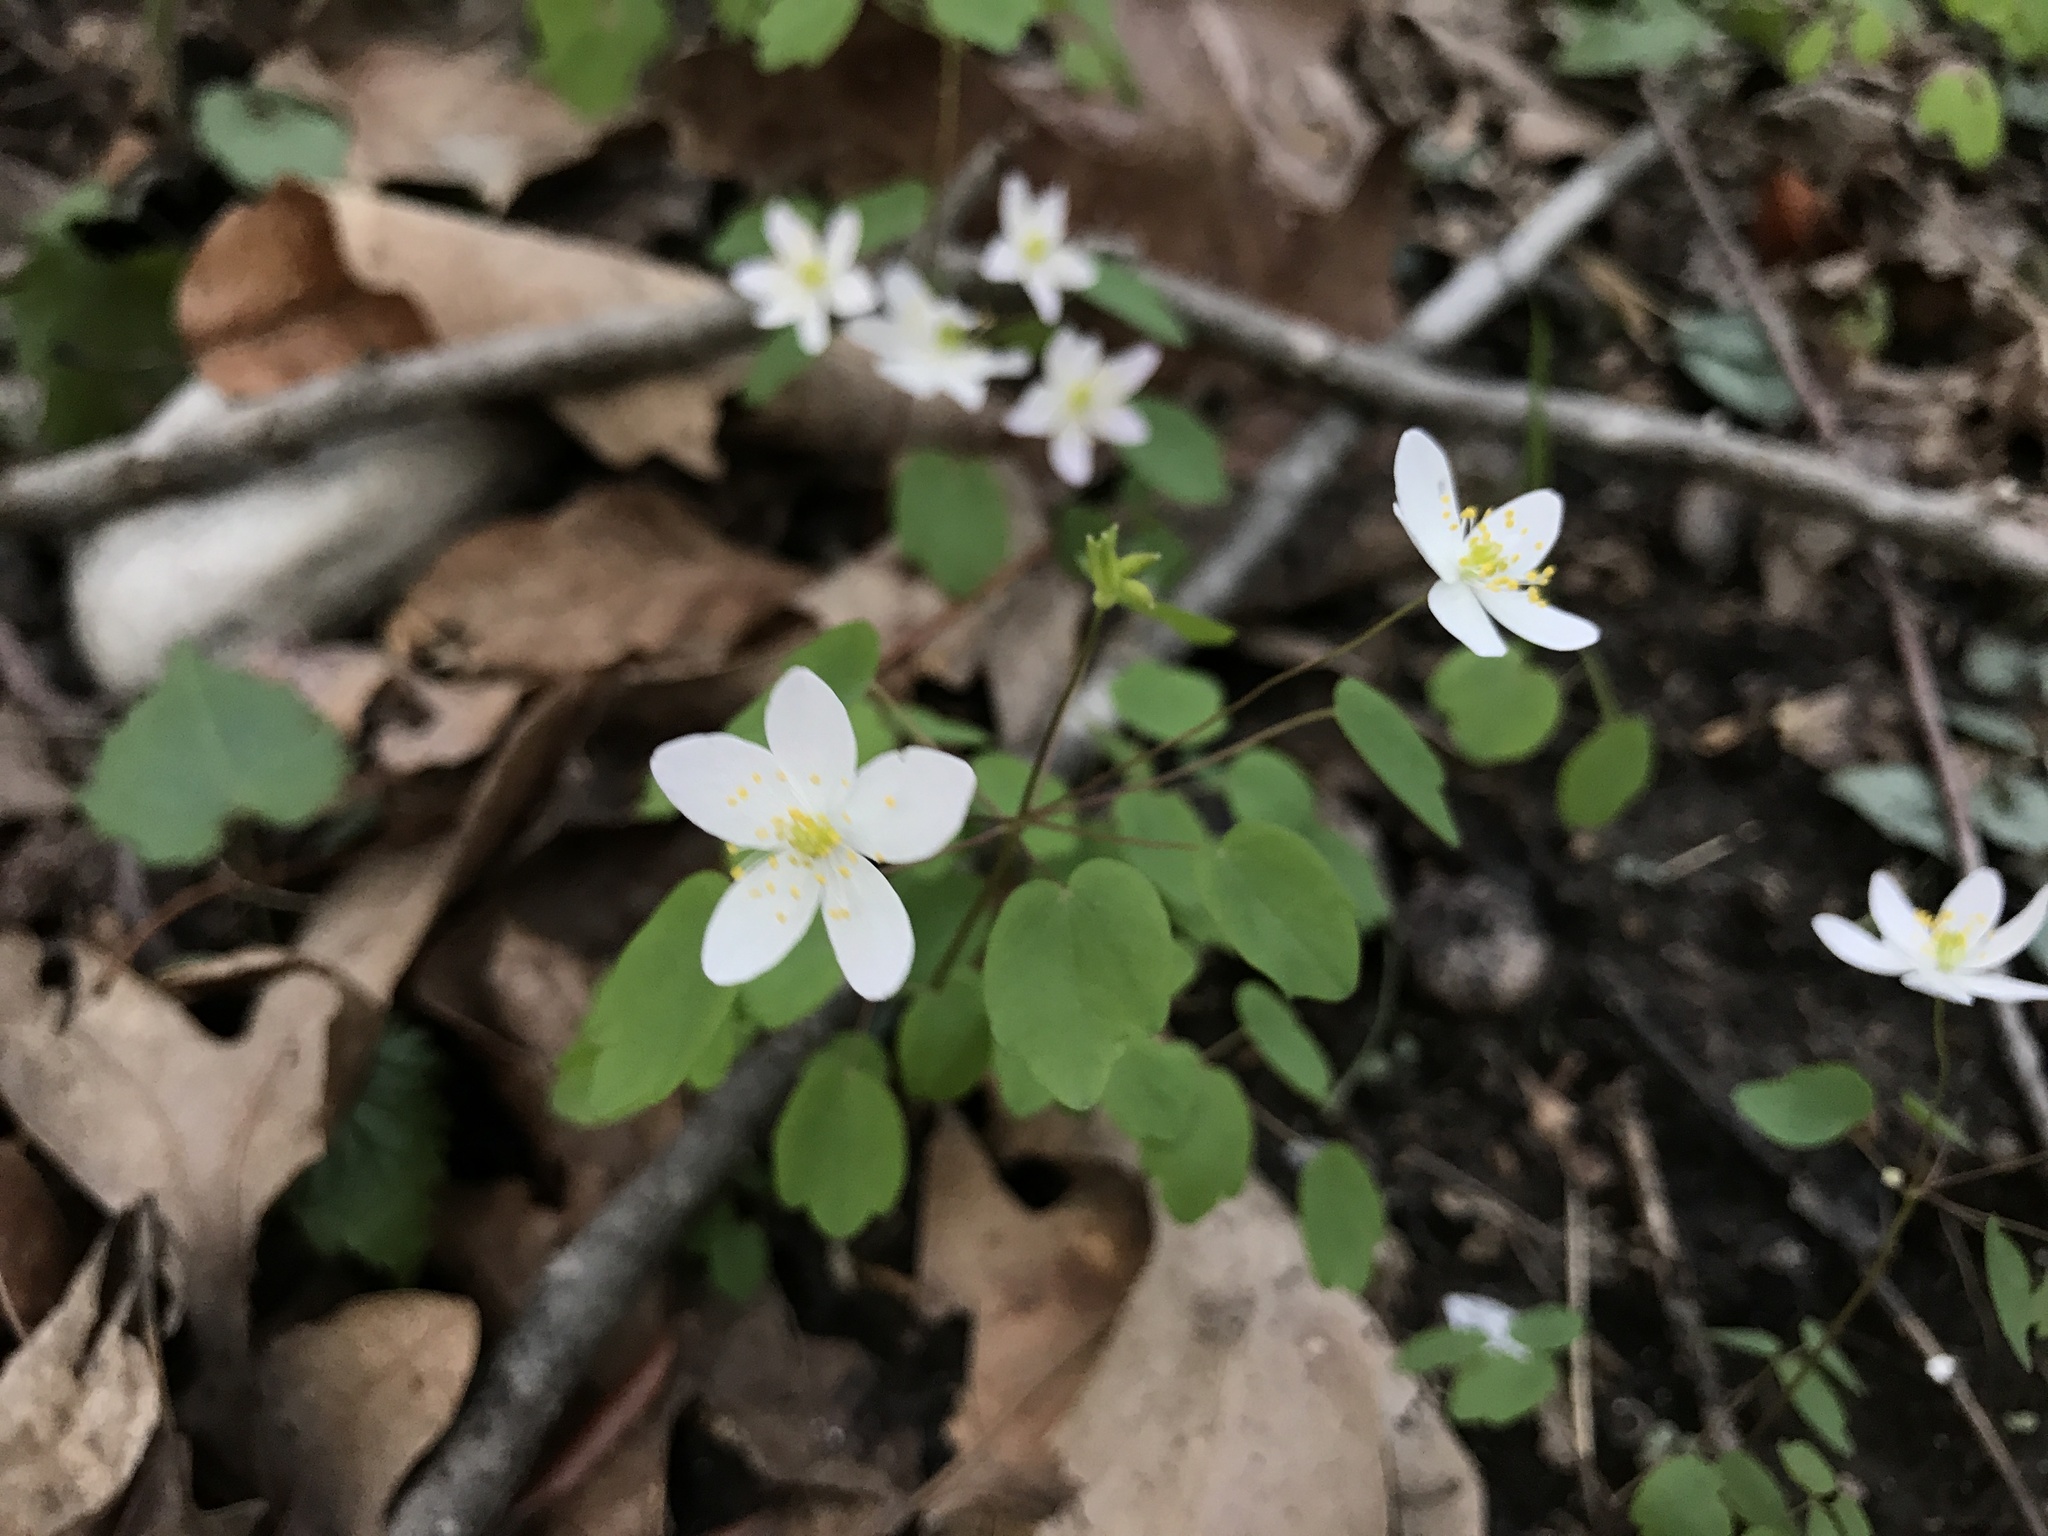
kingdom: Plantae
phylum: Tracheophyta
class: Magnoliopsida
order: Ranunculales
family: Ranunculaceae
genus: Thalictrum
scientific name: Thalictrum thalictroides
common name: Rue-anemone
